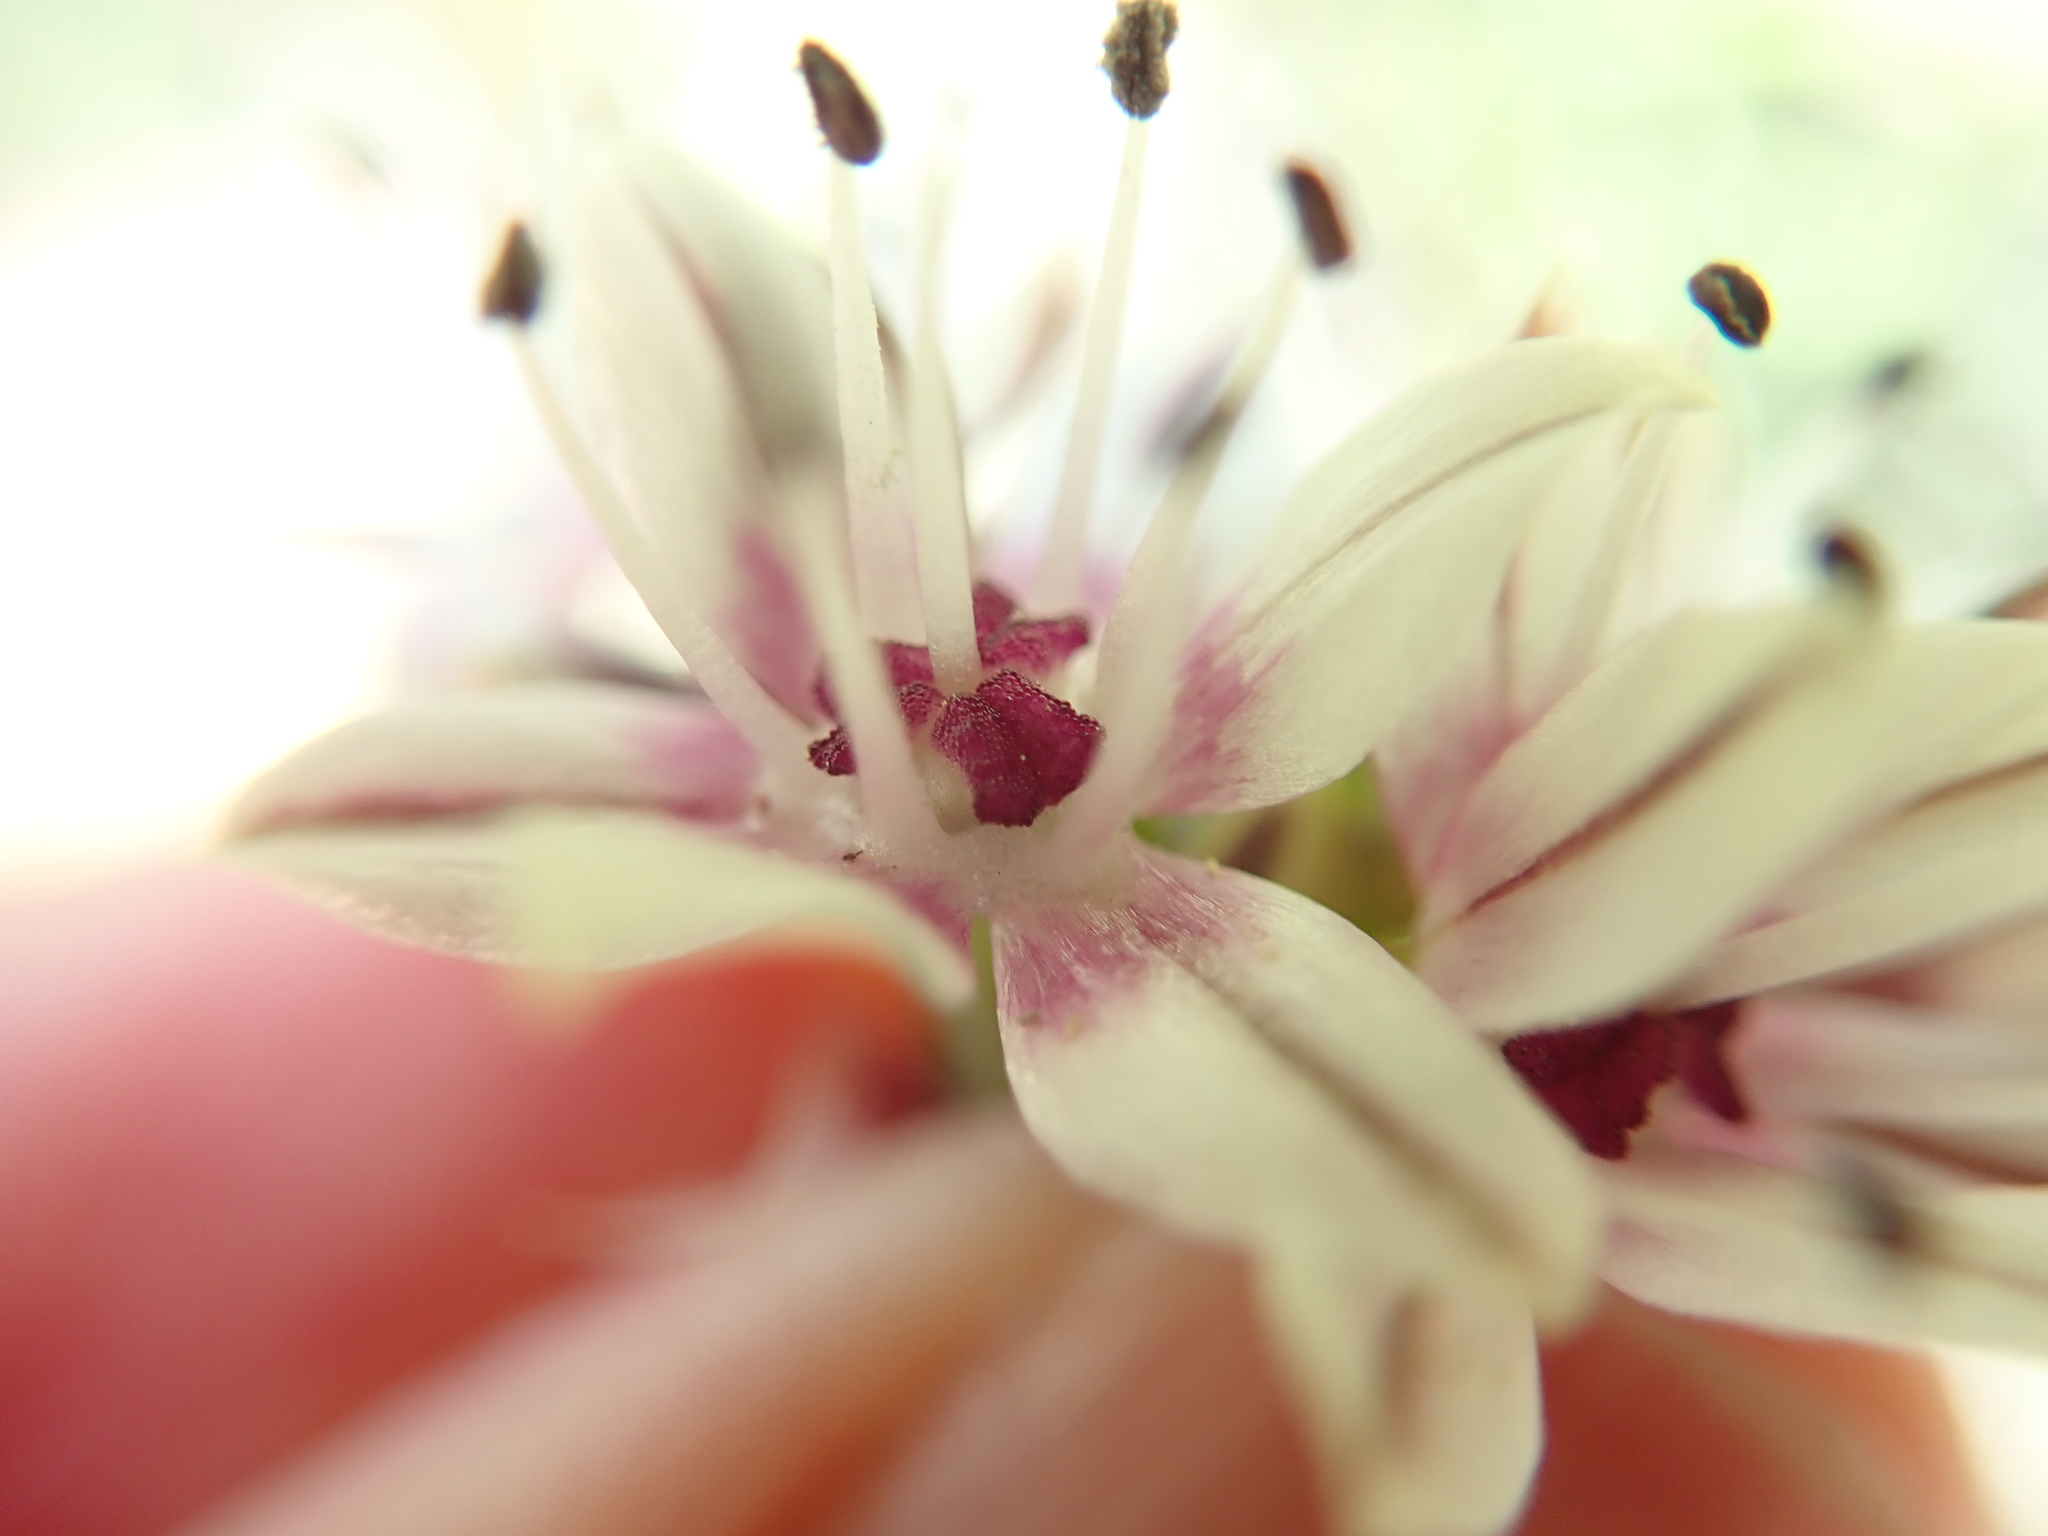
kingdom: Plantae
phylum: Tracheophyta
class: Liliopsida
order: Asparagales
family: Amaryllidaceae
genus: Allium
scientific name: Allium haematochiton
